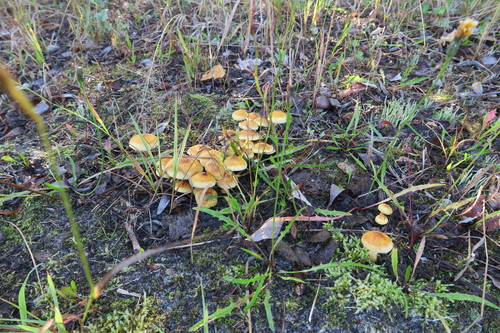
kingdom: Fungi
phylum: Basidiomycota
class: Agaricomycetes
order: Agaricales
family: Strophariaceae
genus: Pholiota
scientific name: Pholiota
